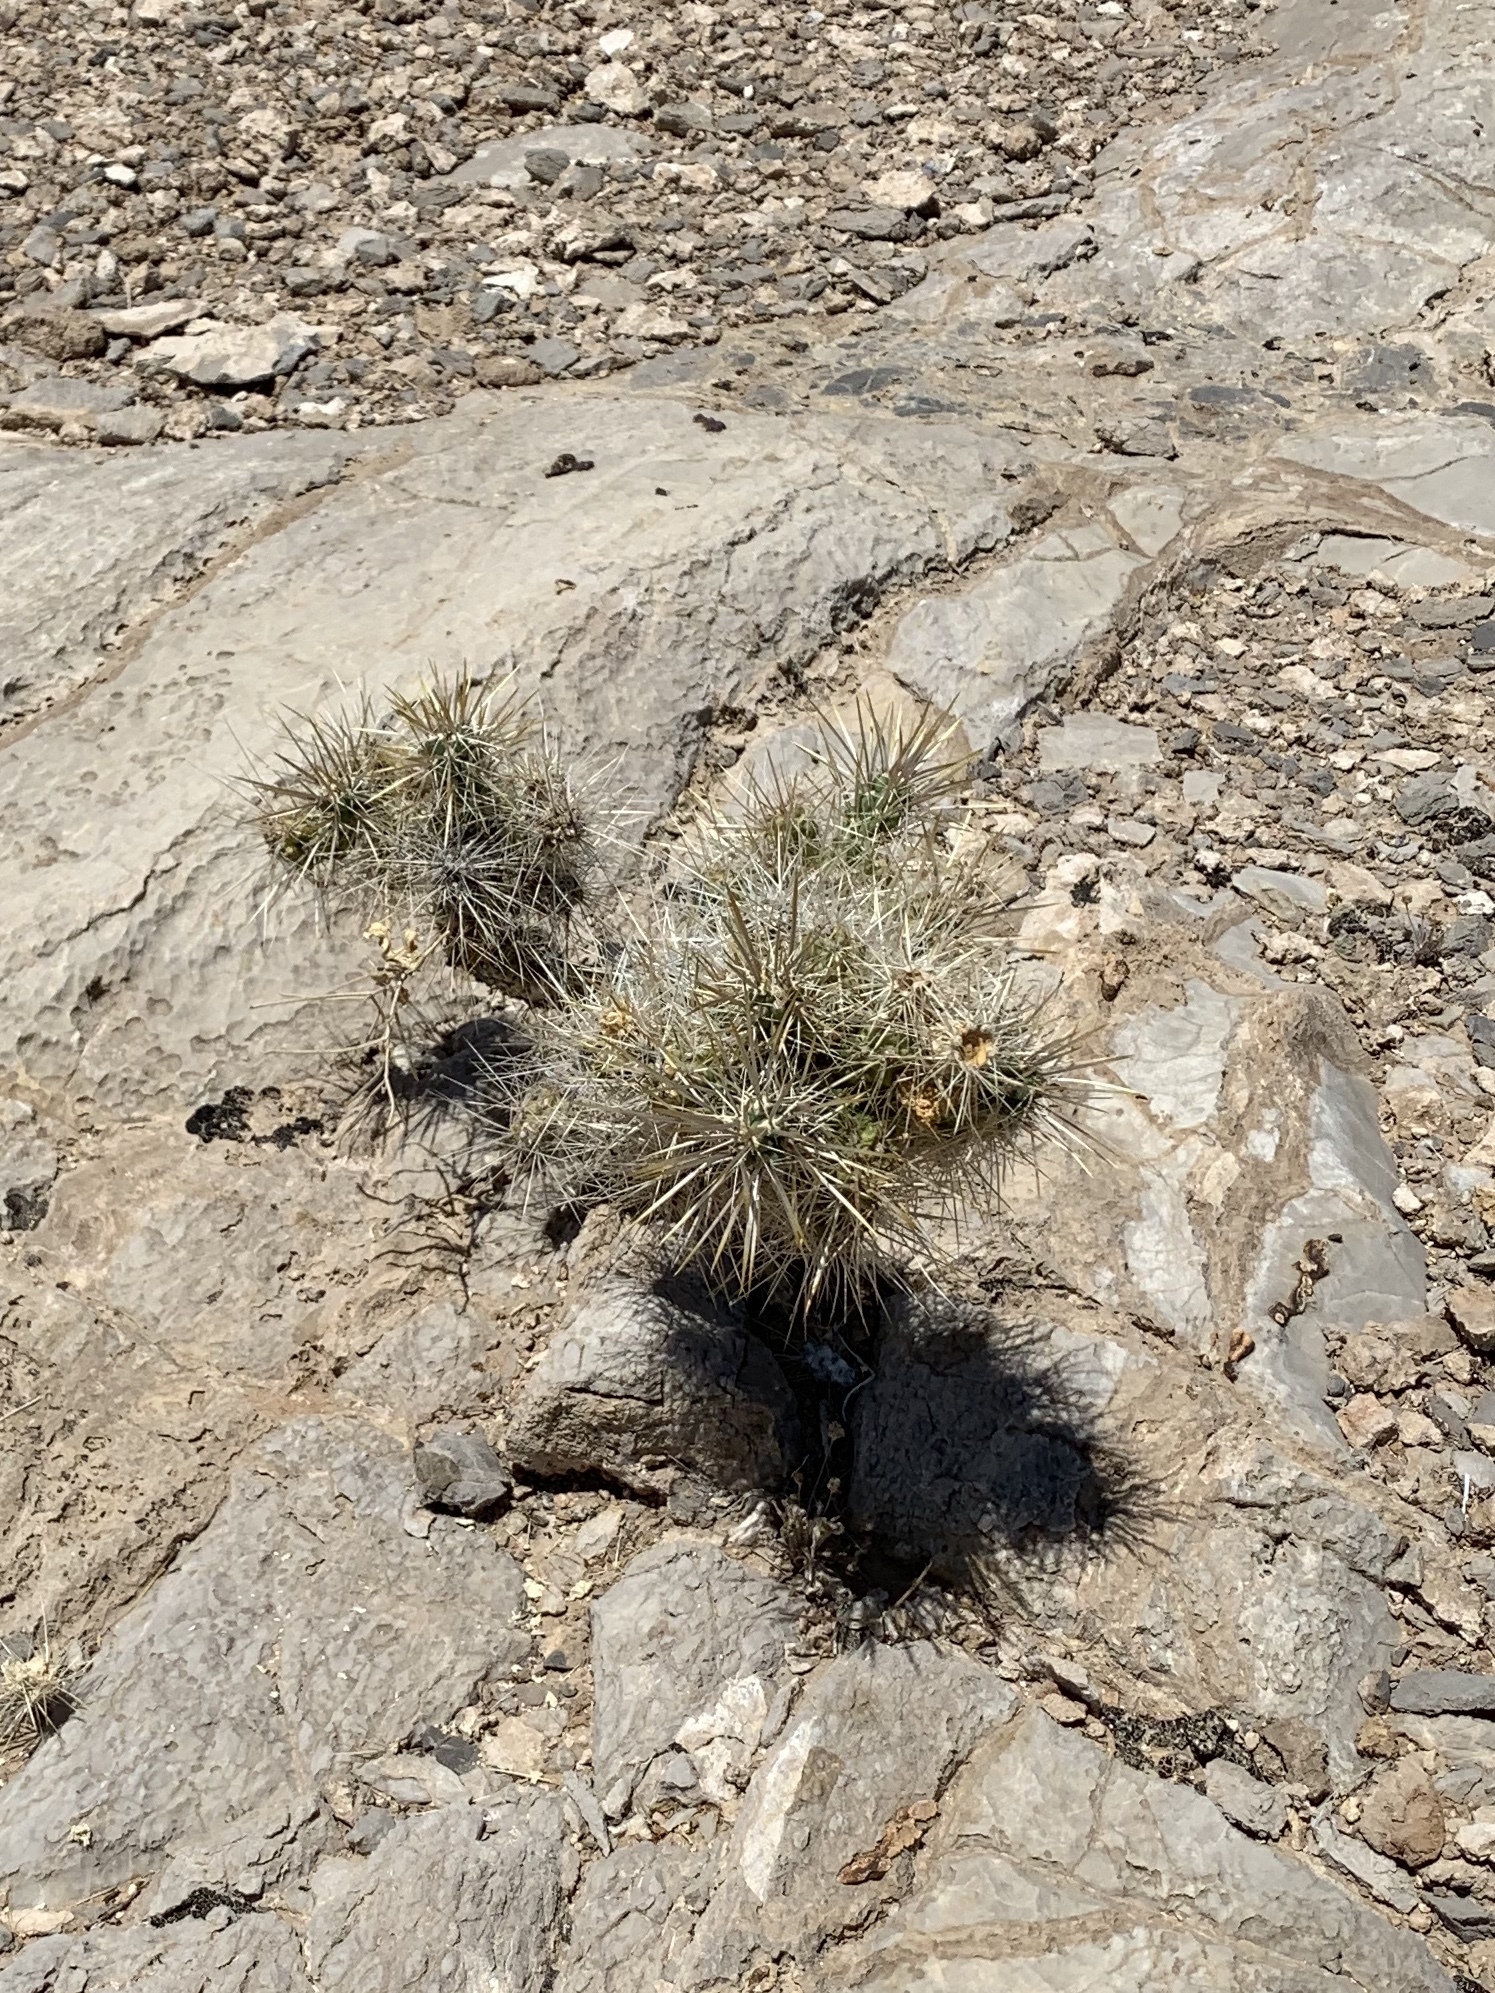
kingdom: Plantae
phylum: Tracheophyta
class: Magnoliopsida
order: Caryophyllales
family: Cactaceae
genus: Cylindropuntia
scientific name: Cylindropuntia echinocarpa
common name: Ground cholla
